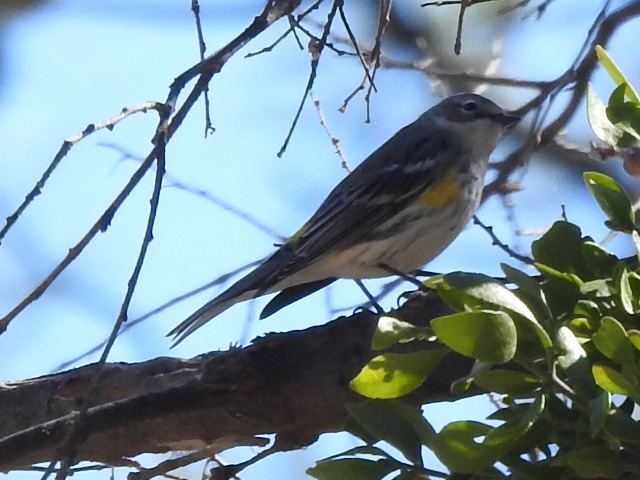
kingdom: Animalia
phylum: Chordata
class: Aves
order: Passeriformes
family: Parulidae
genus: Setophaga
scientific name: Setophaga coronata
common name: Myrtle warbler
